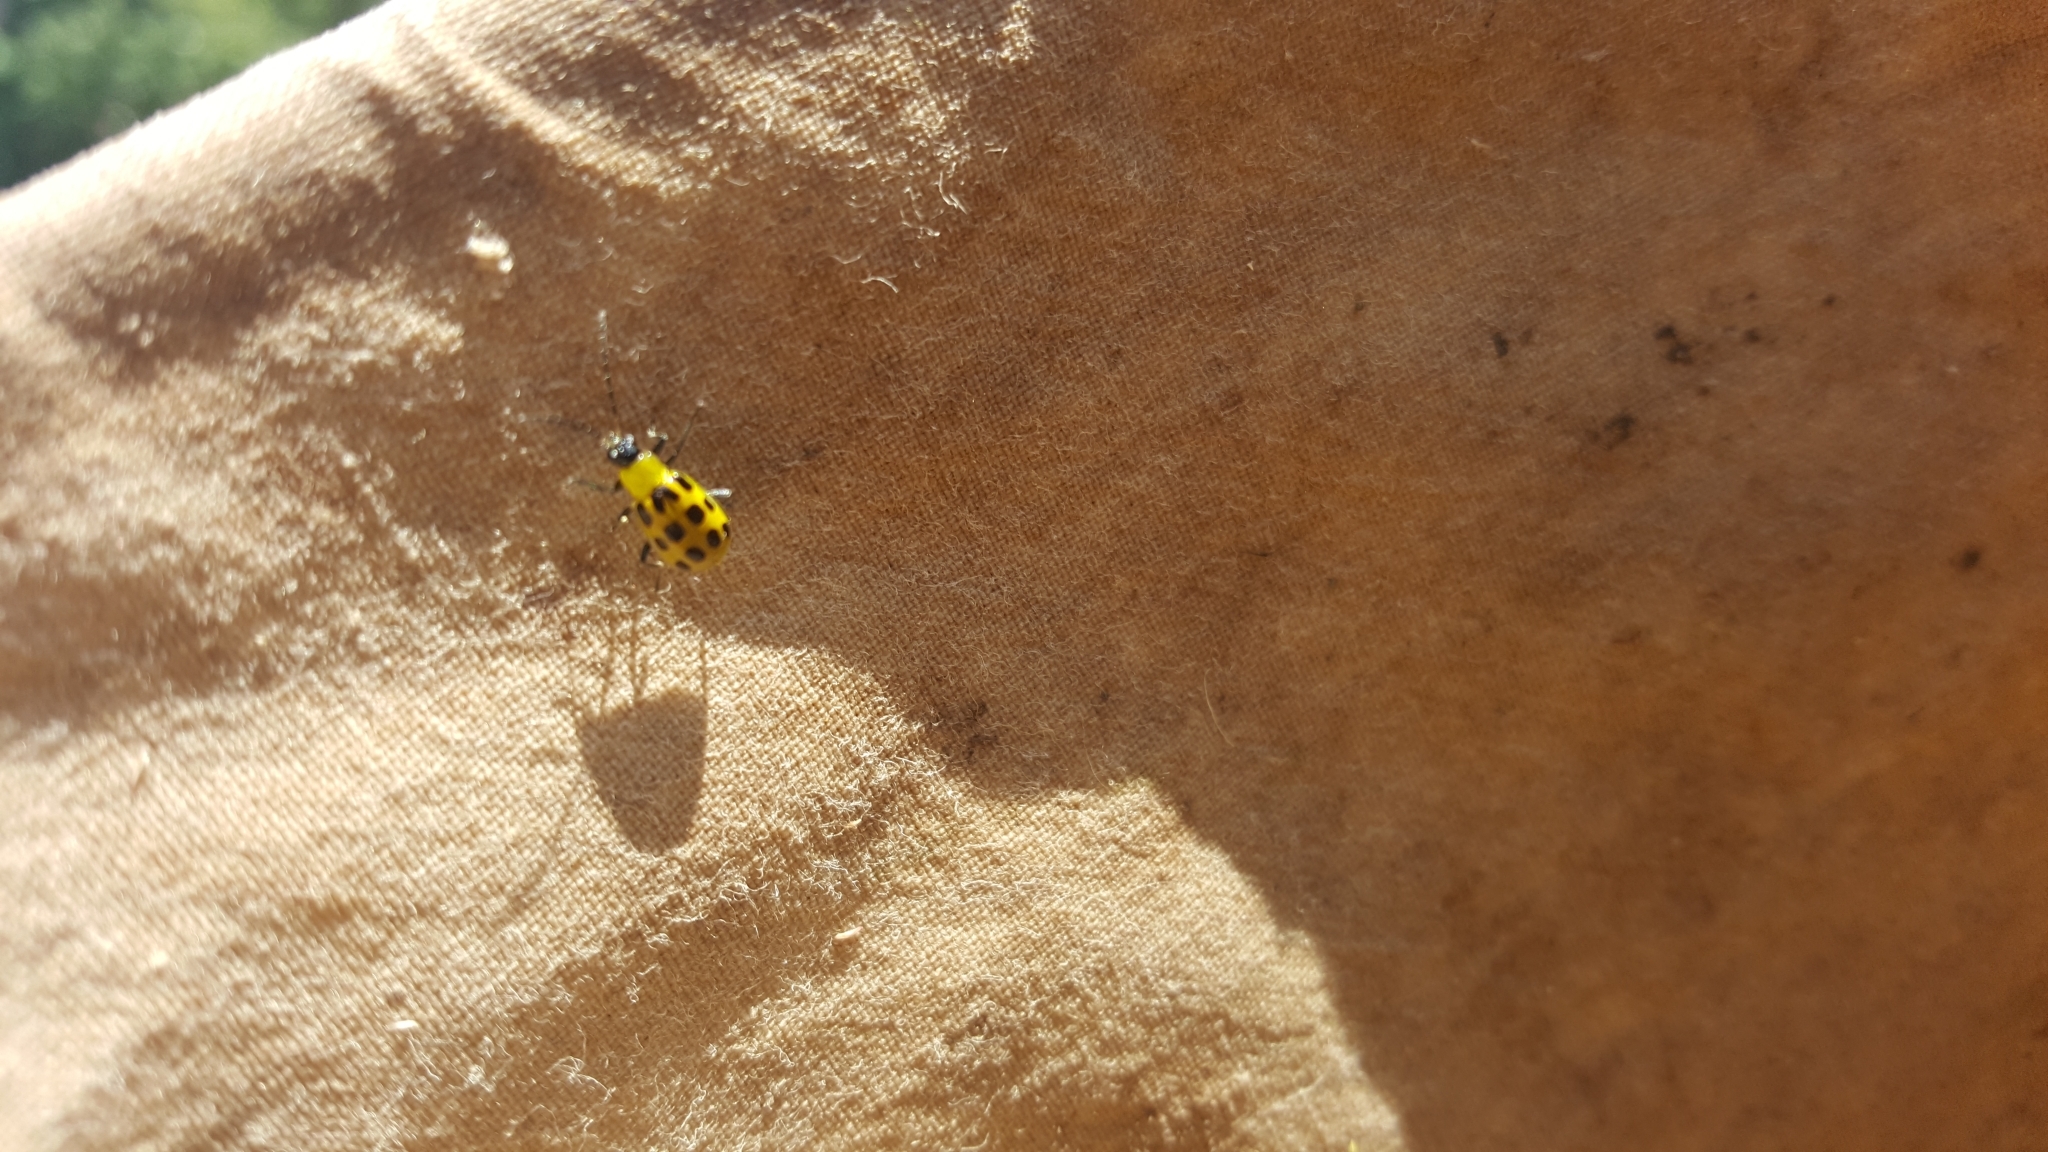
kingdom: Animalia
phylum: Arthropoda
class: Insecta
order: Coleoptera
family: Chrysomelidae
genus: Diabrotica
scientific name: Diabrotica undecimpunctata
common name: Spotted cucumber beetle
